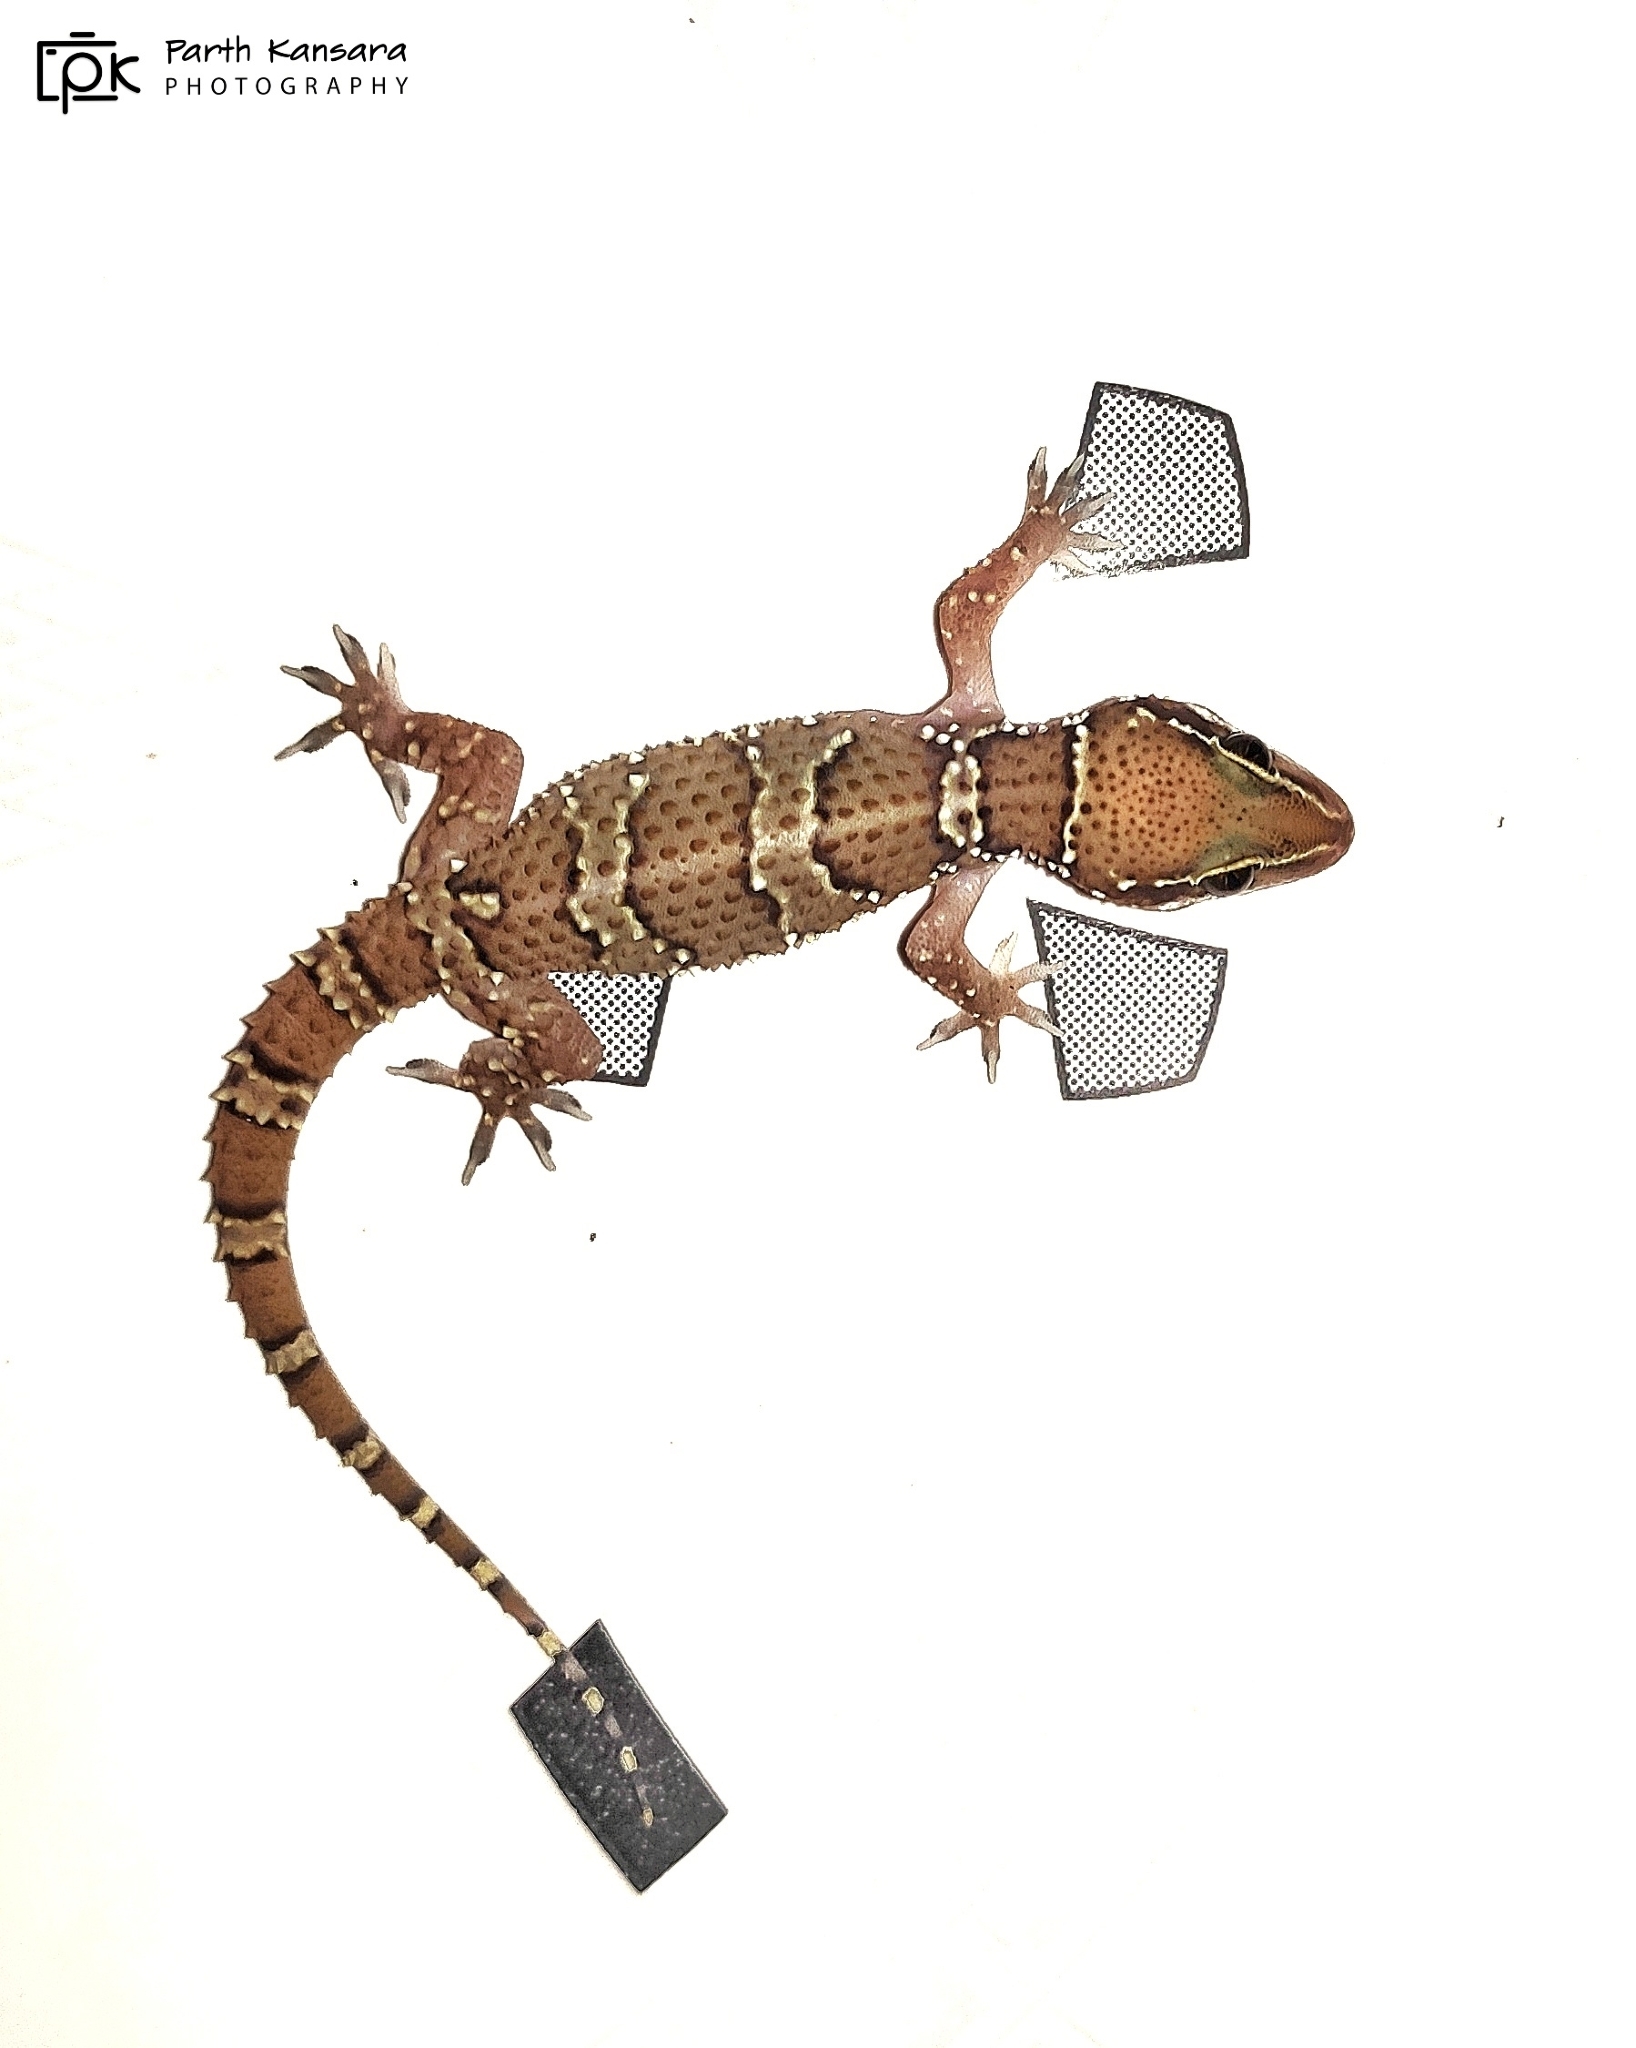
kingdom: Animalia
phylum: Chordata
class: Squamata
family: Gekkonidae
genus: Hemidactylus
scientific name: Hemidactylus sahgali
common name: Sahgal’s termite hill gecko
